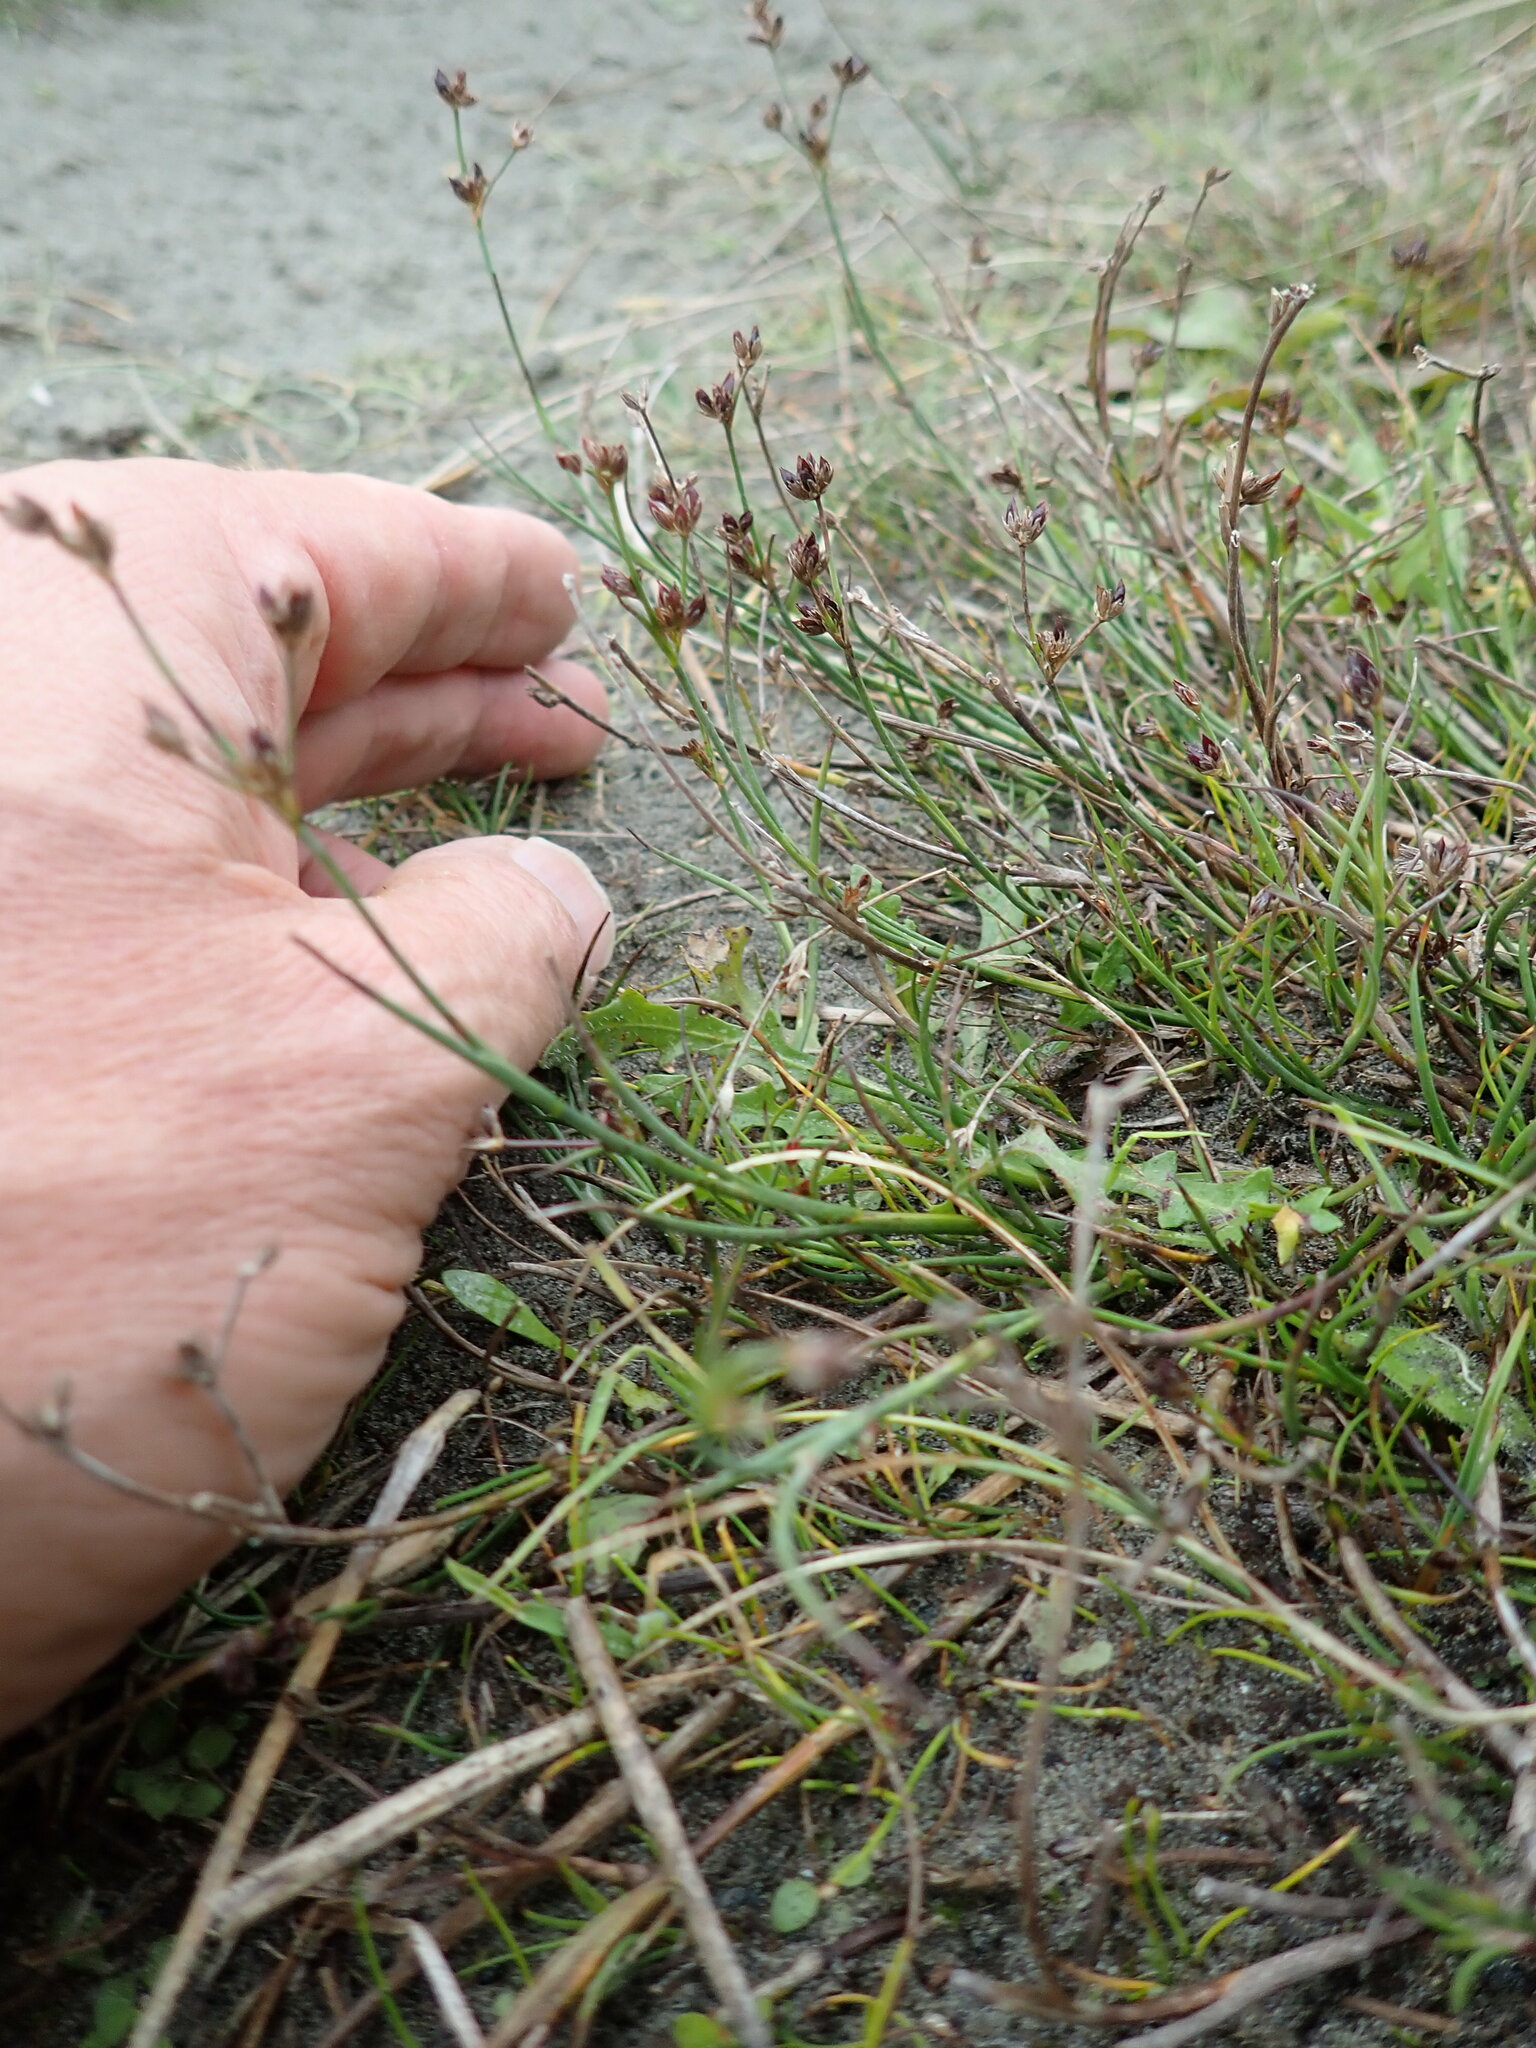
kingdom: Plantae
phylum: Tracheophyta
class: Liliopsida
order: Poales
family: Juncaceae
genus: Juncus
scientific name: Juncus articulatus
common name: Jointed rush
